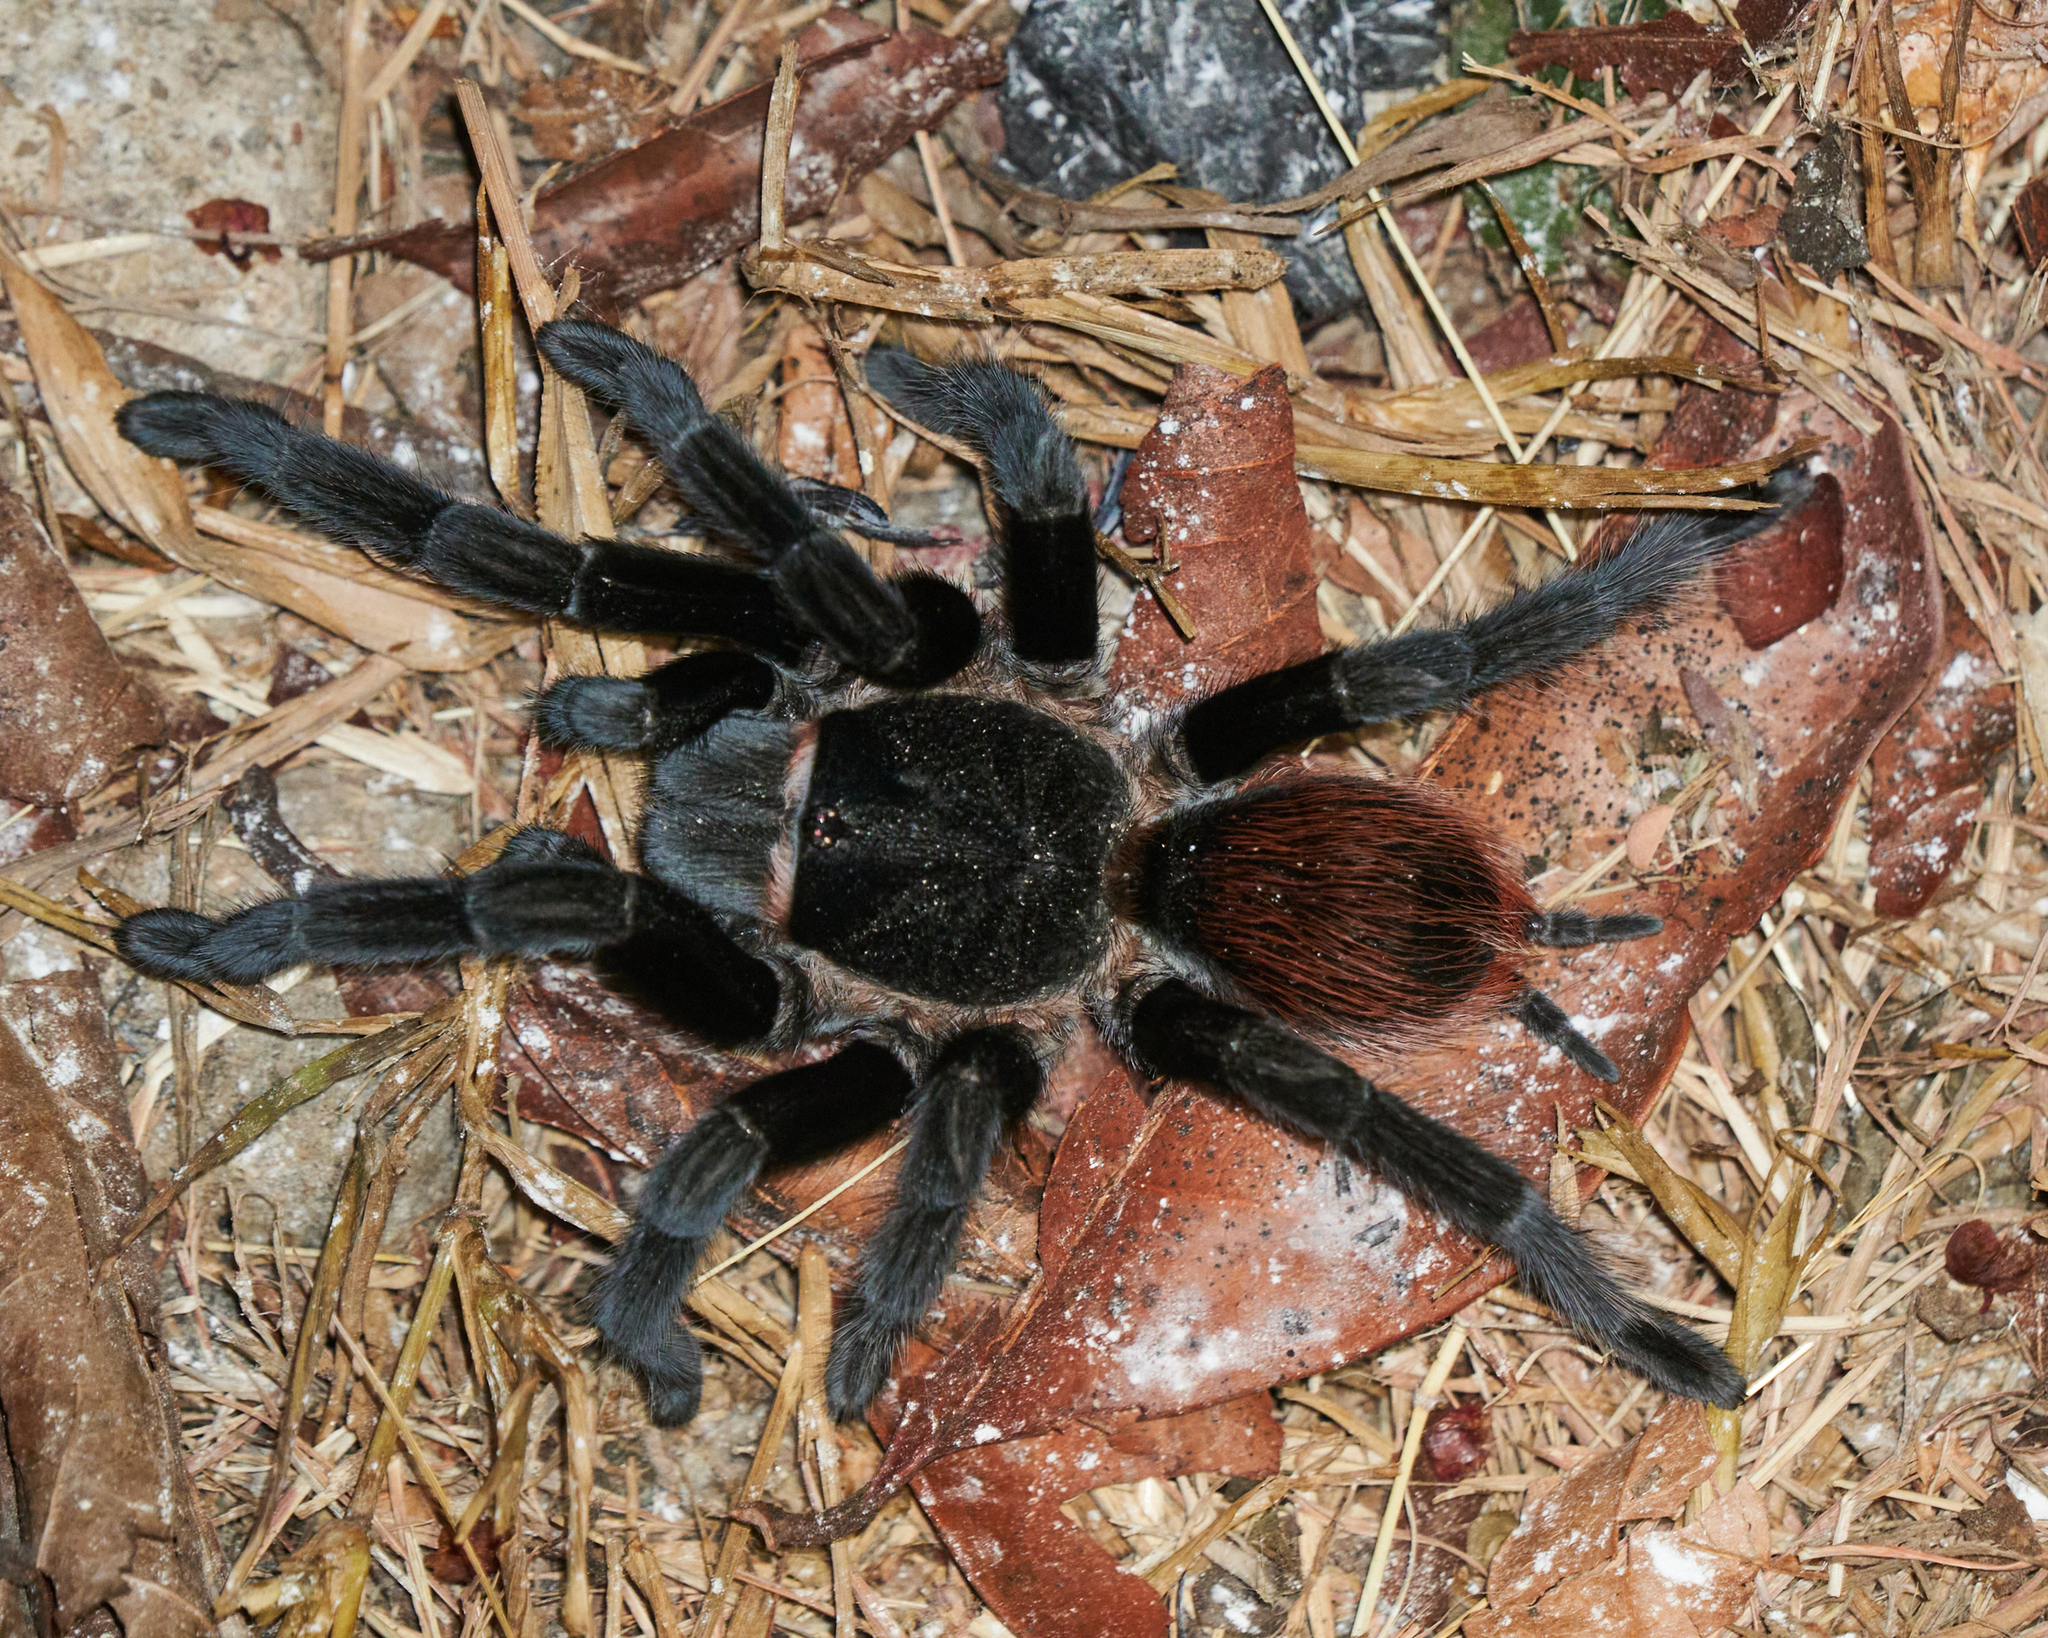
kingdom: Animalia
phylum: Arthropoda
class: Arachnida
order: Araneae
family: Theraphosidae
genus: Tliltocatl
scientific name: Tliltocatl vagans
